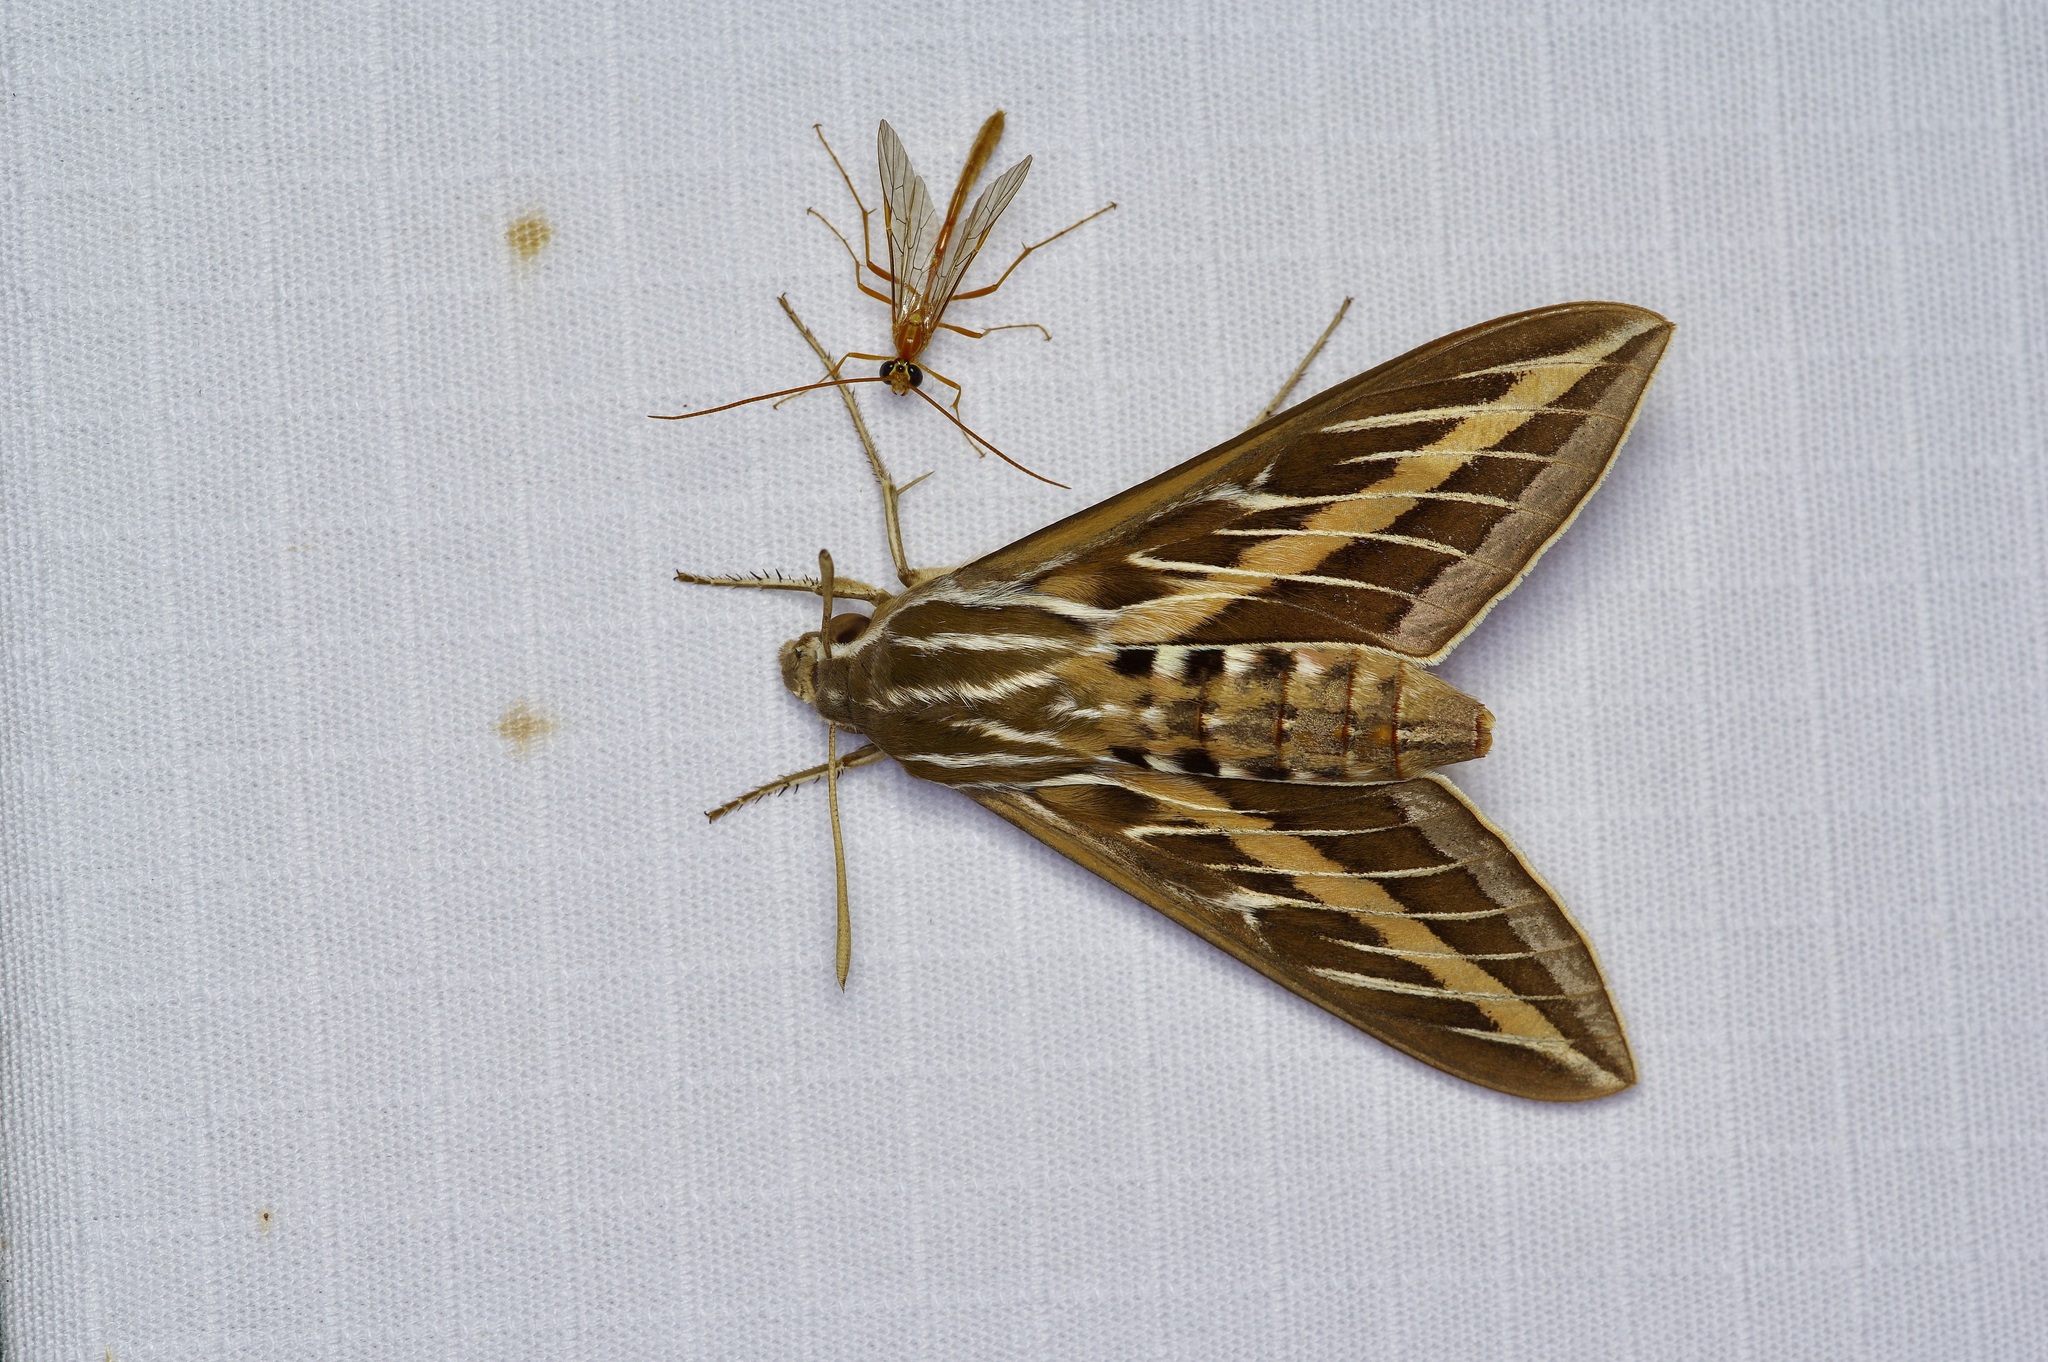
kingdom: Animalia
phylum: Arthropoda
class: Insecta
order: Lepidoptera
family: Sphingidae
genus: Hyles
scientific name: Hyles lineata
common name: White-lined sphinx
